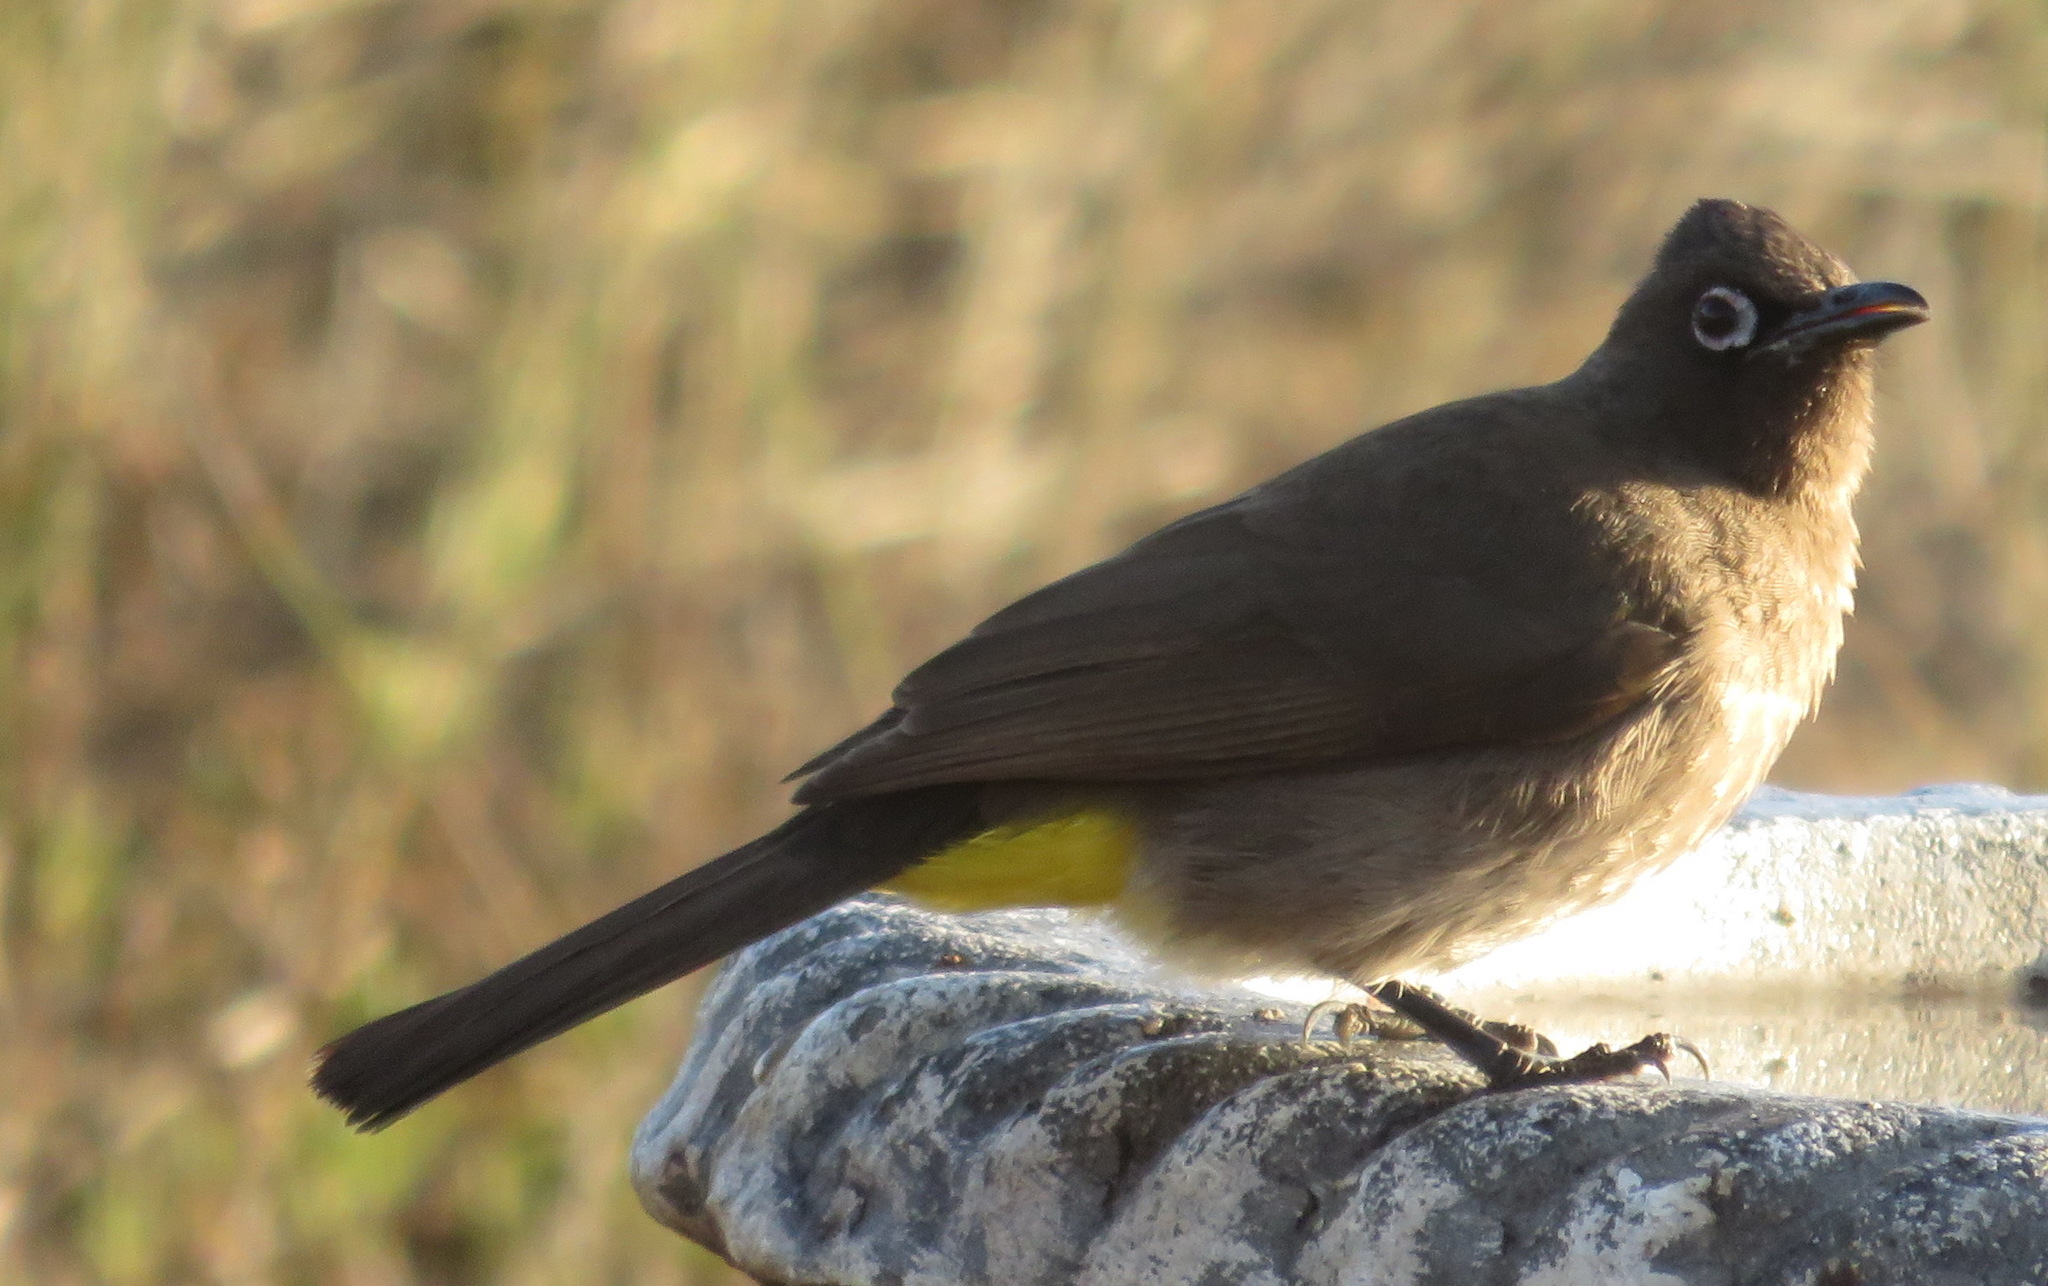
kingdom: Animalia
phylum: Chordata
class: Aves
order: Passeriformes
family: Pycnonotidae
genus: Pycnonotus
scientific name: Pycnonotus capensis
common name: Cape bulbul
